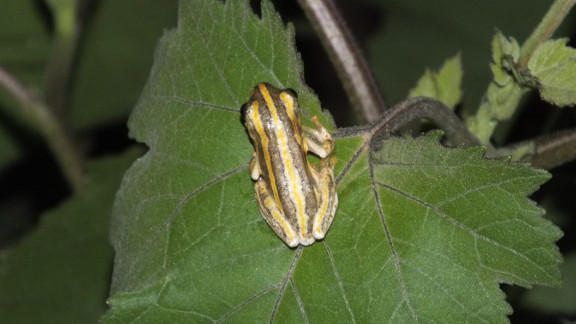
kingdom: Animalia
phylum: Chordata
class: Amphibia
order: Anura
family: Hyperoliidae
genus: Hyperolius
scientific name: Hyperolius marmoratus
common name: Painted reed frog
